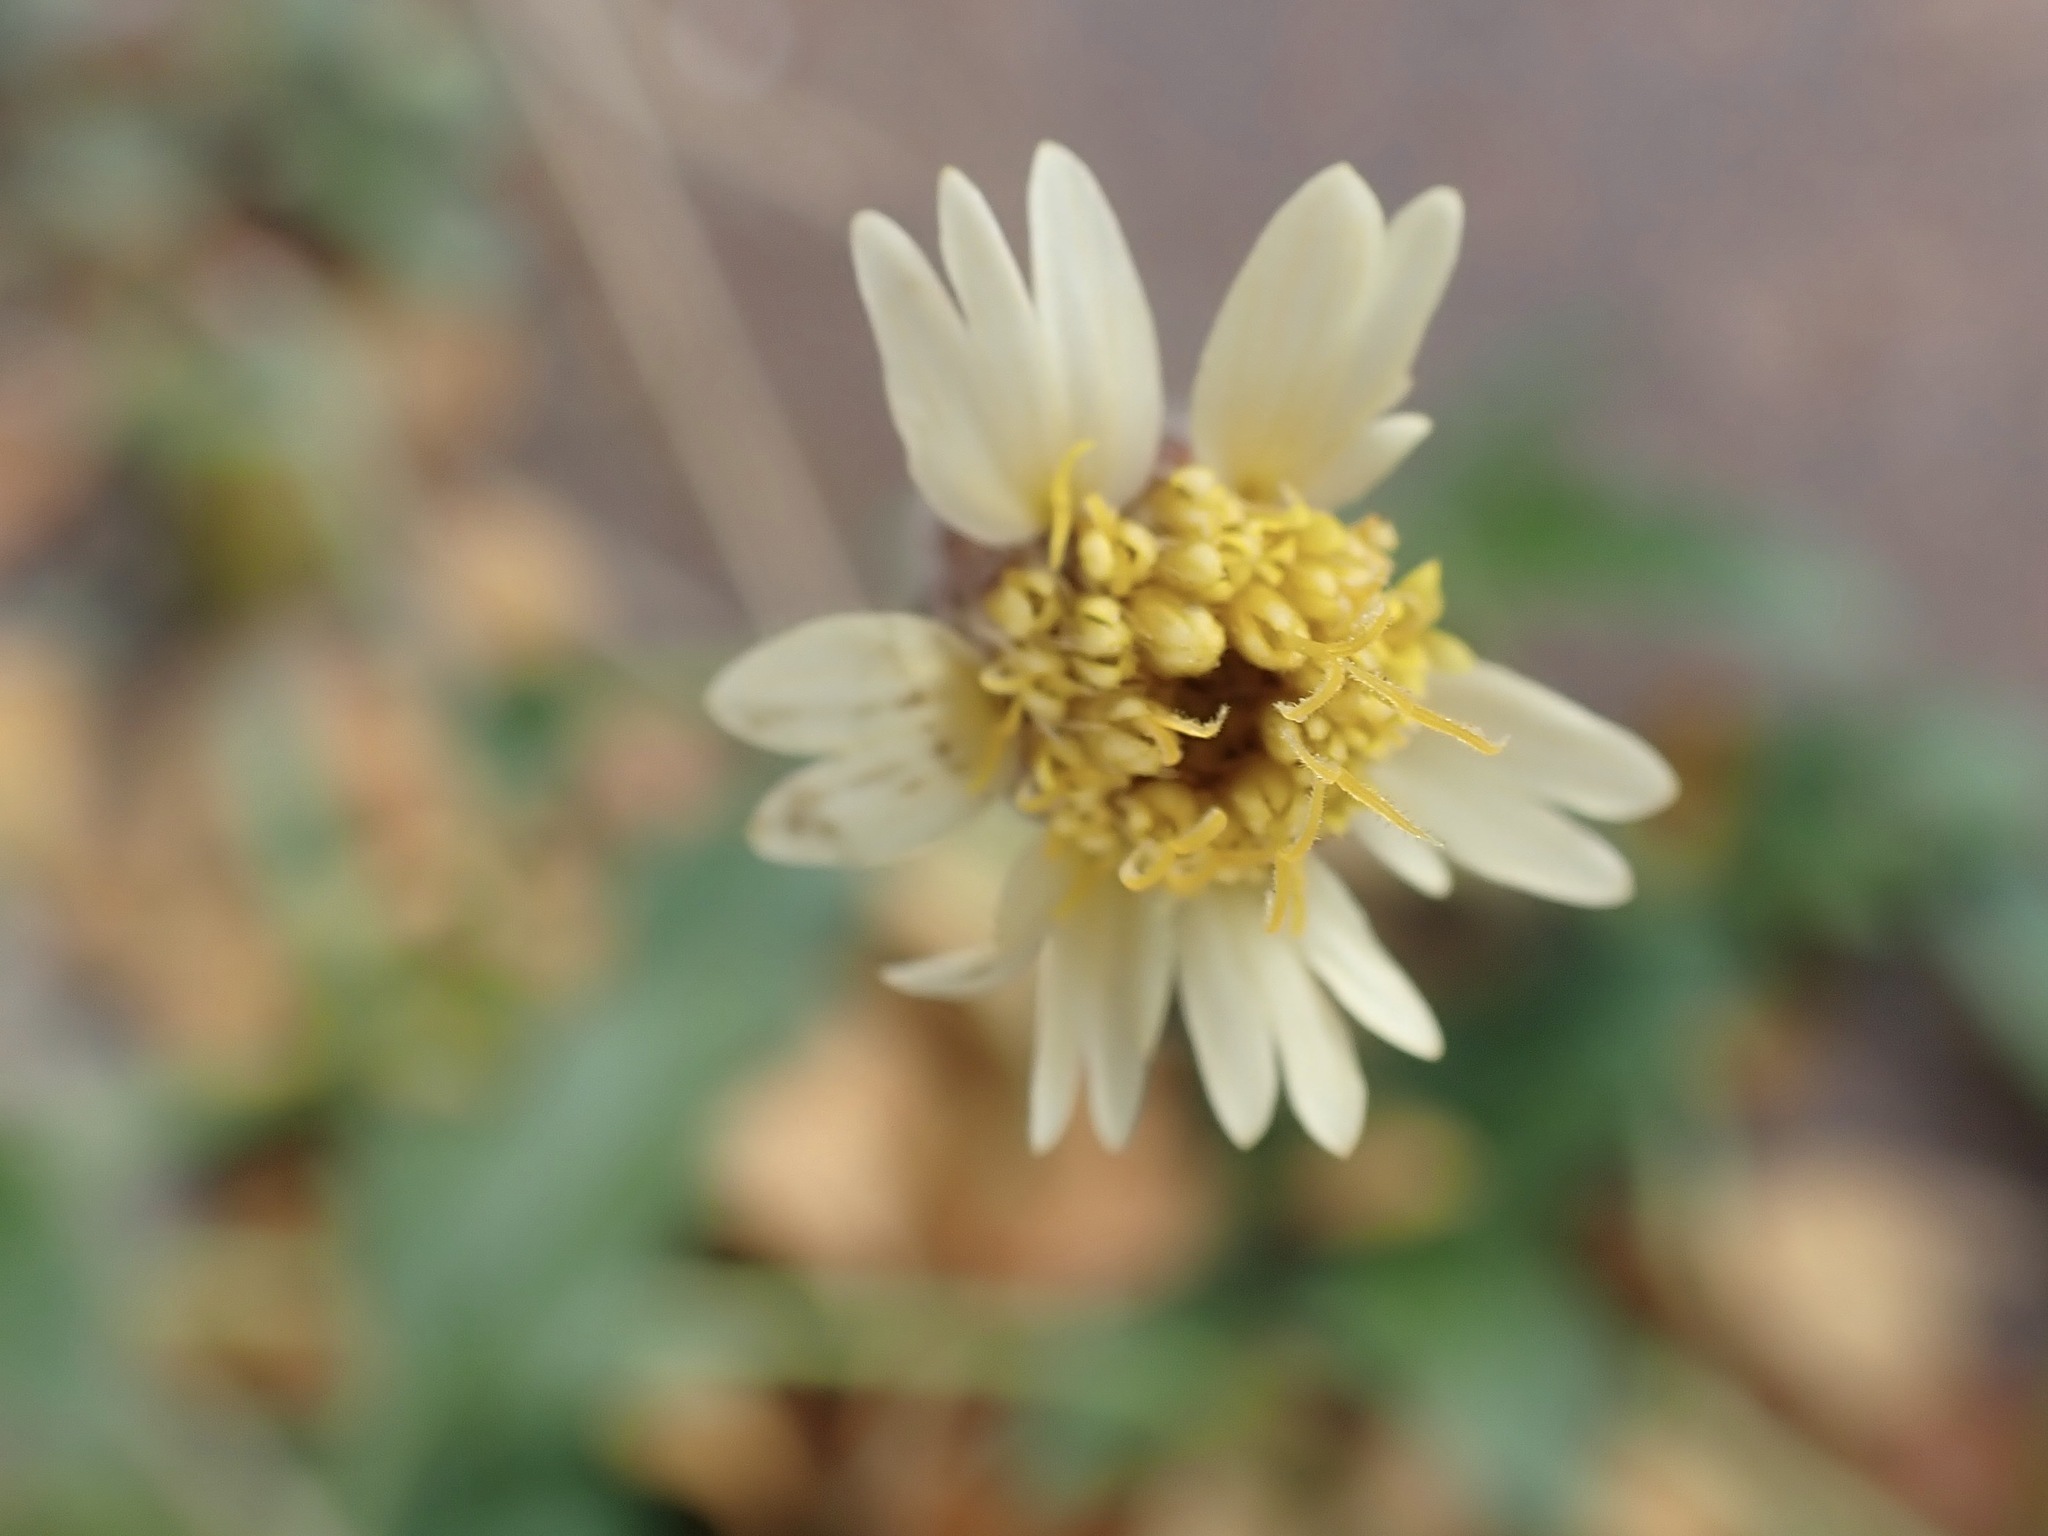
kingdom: Plantae
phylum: Tracheophyta
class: Magnoliopsida
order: Asterales
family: Asteraceae
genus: Tridax
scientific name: Tridax procumbens
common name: Coatbuttons
